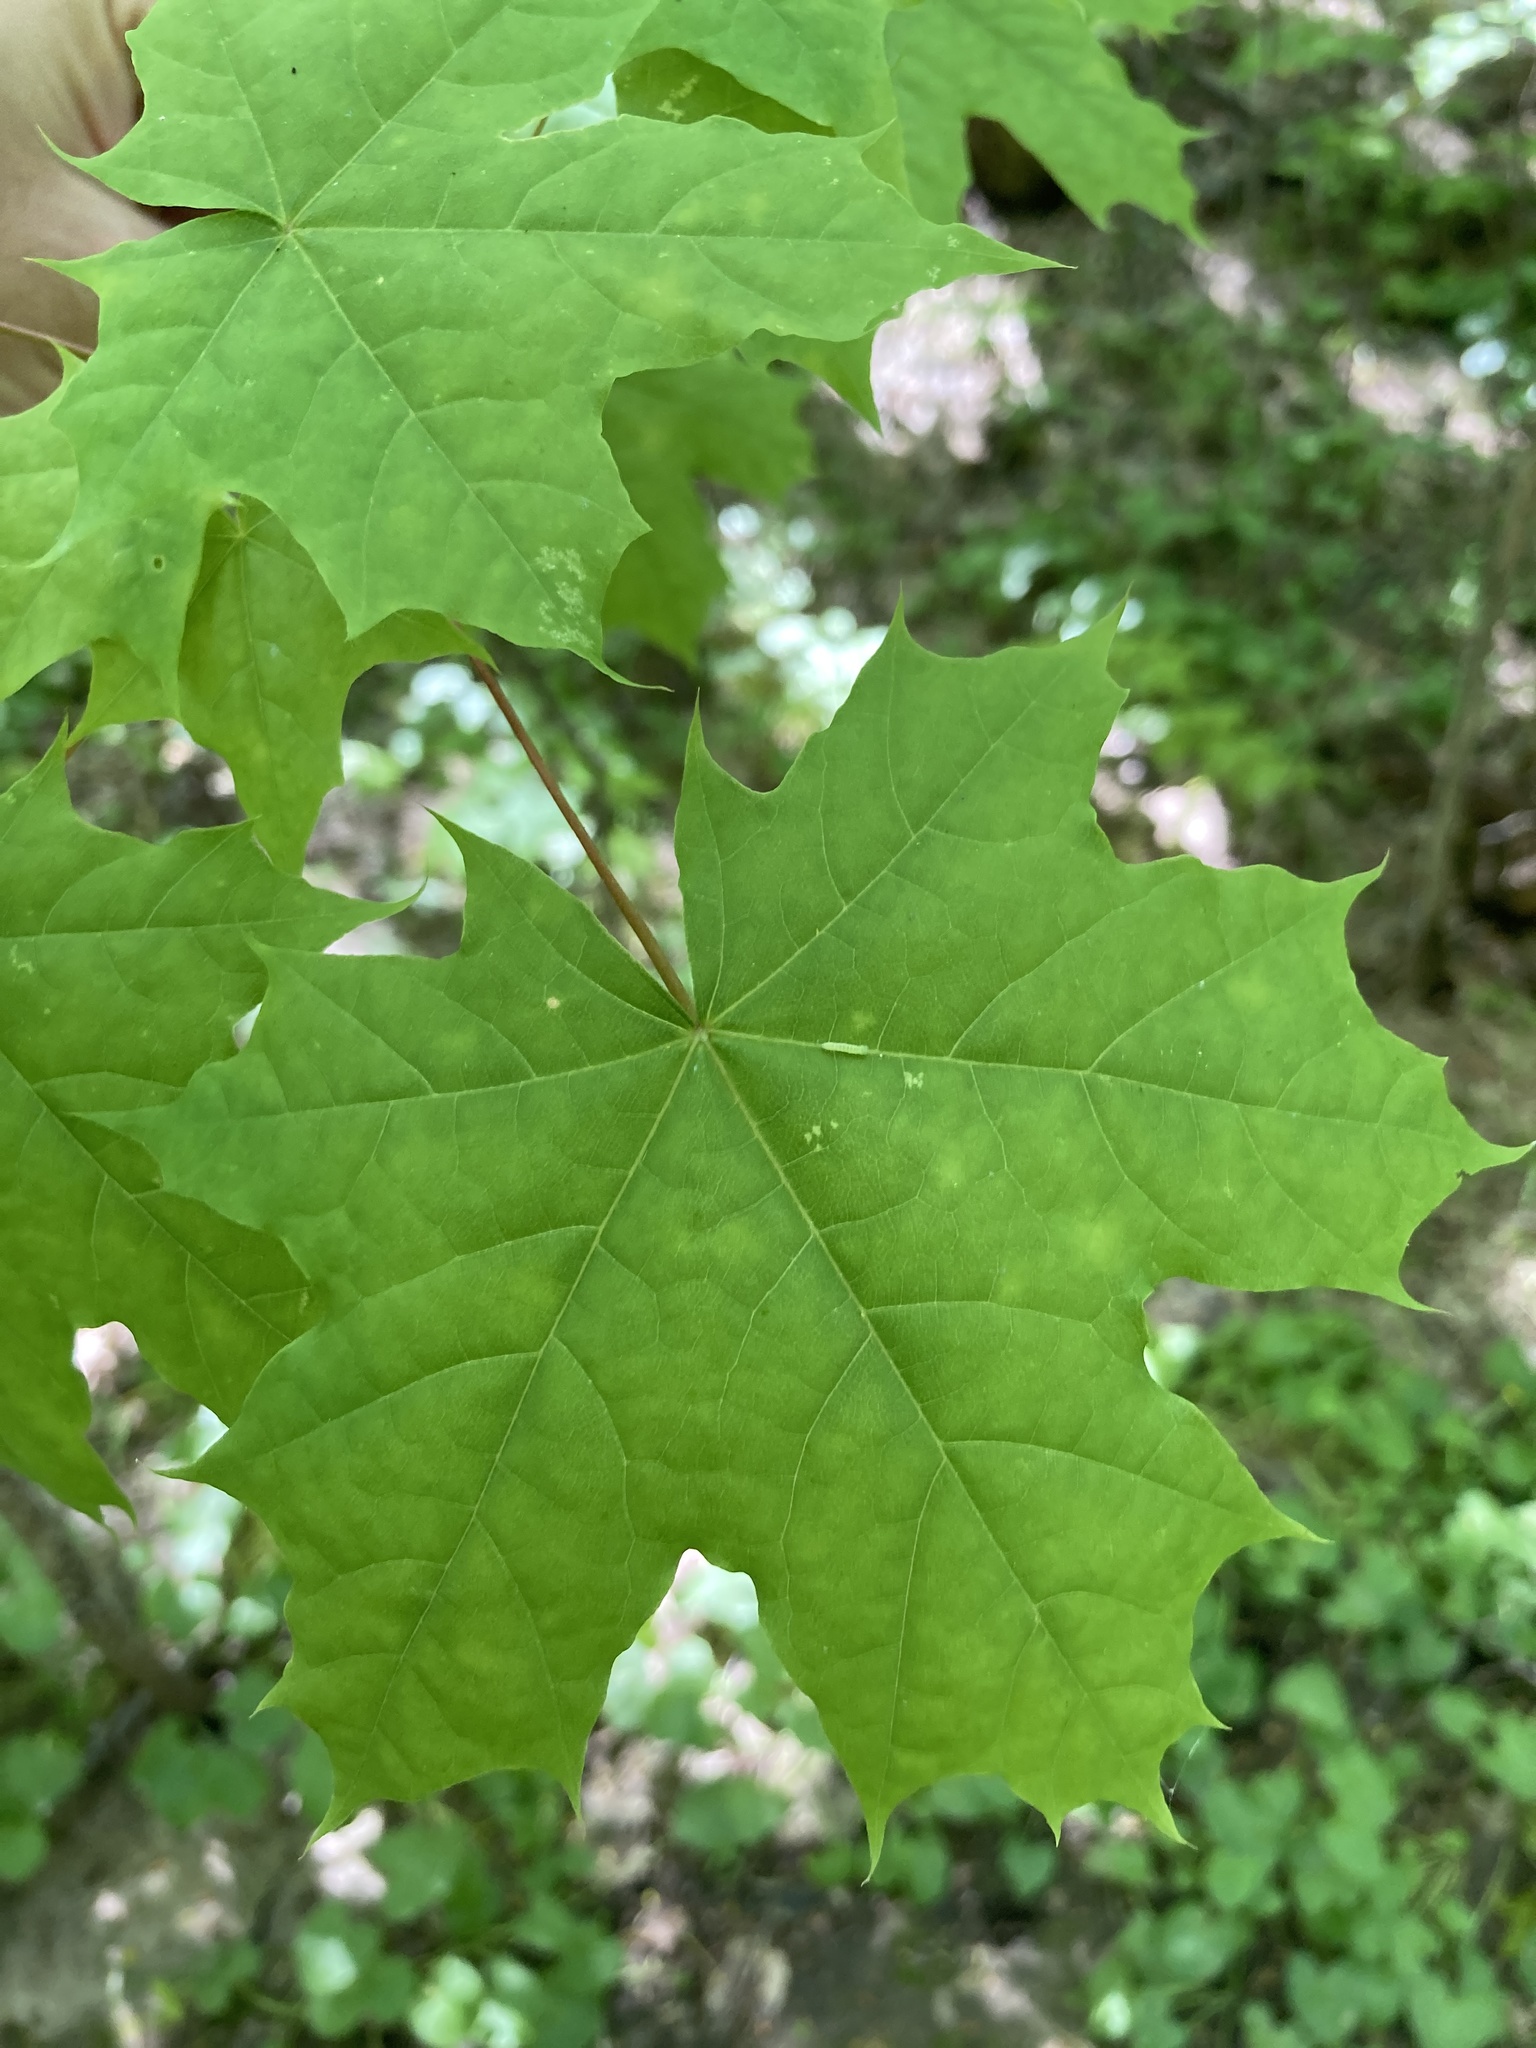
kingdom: Plantae
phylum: Tracheophyta
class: Magnoliopsida
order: Sapindales
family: Sapindaceae
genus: Acer
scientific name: Acer platanoides
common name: Norway maple
